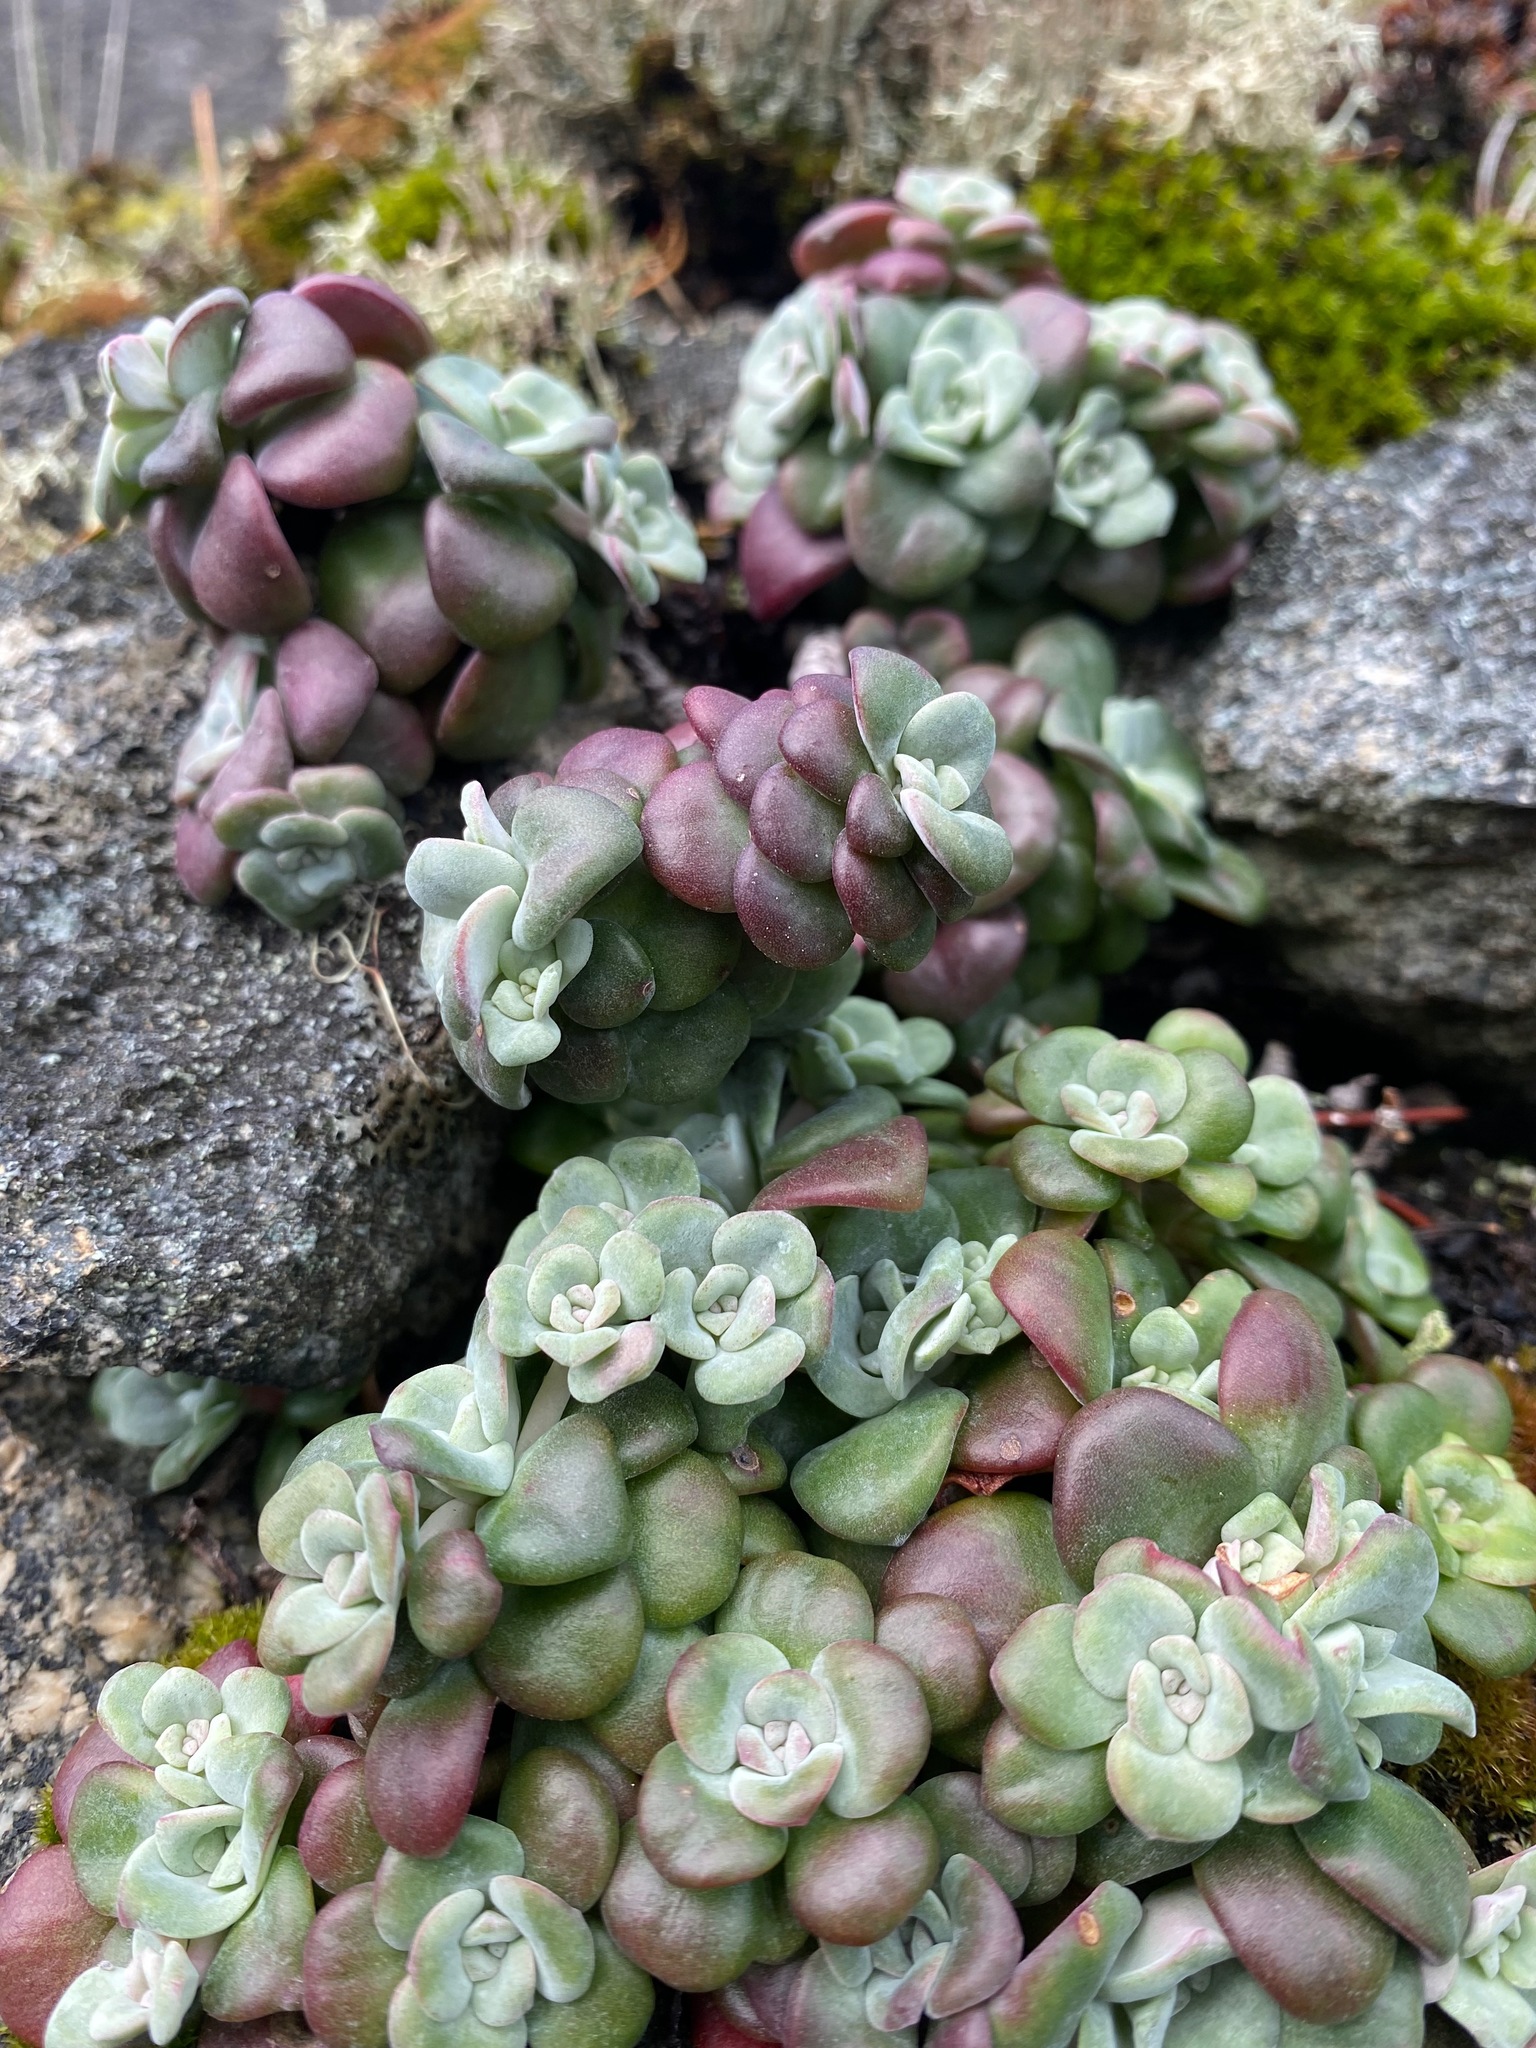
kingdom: Plantae
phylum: Tracheophyta
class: Magnoliopsida
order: Saxifragales
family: Crassulaceae
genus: Sedum
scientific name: Sedum spathulifolium
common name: Colorado stonecrop
